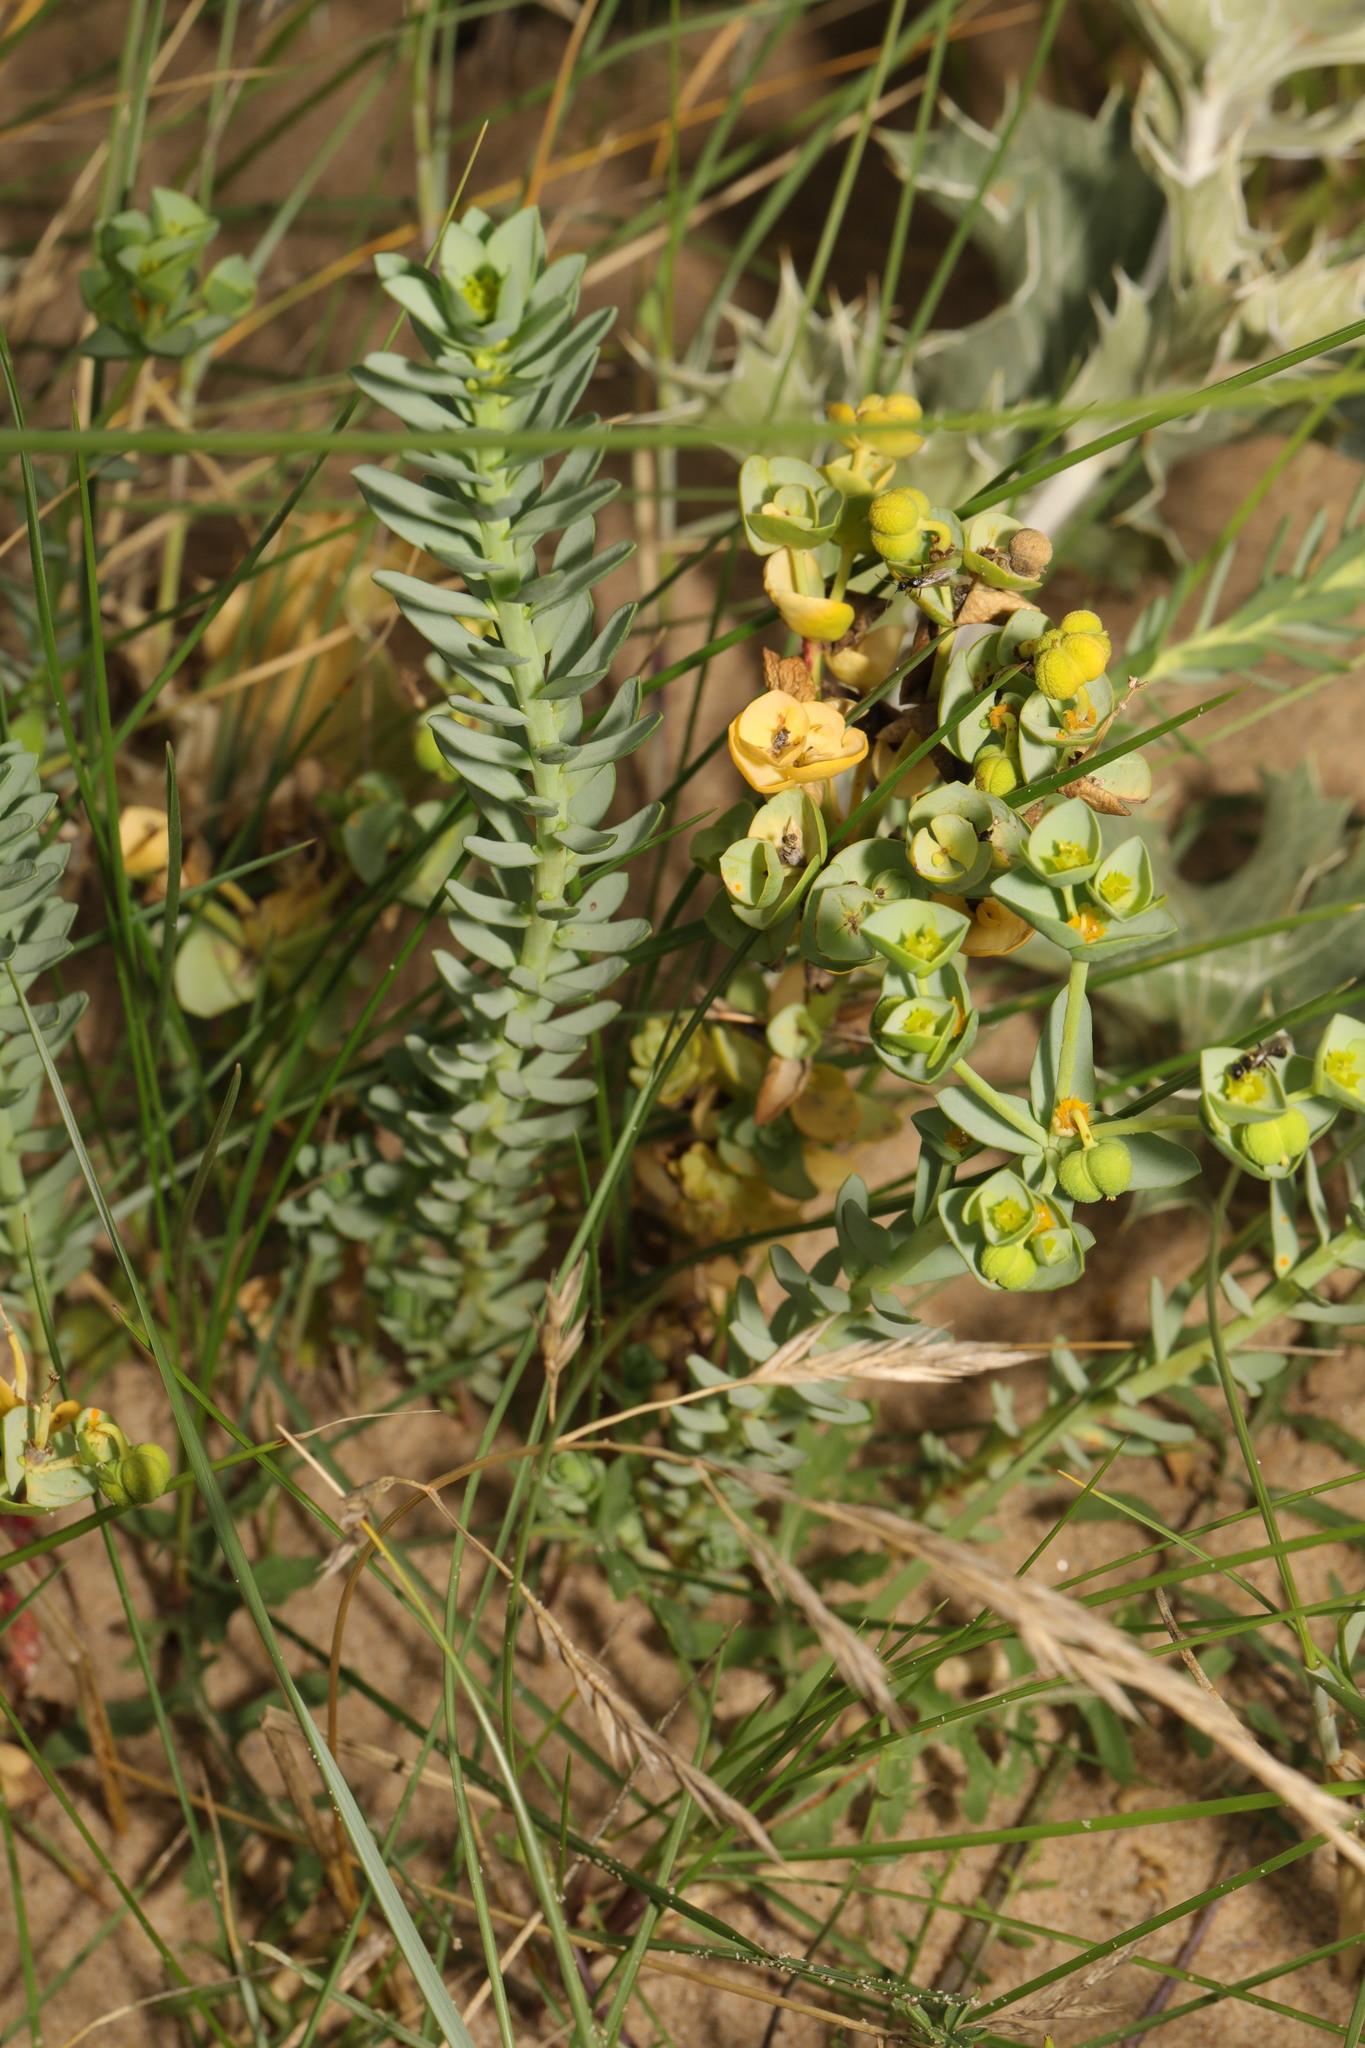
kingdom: Plantae
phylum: Tracheophyta
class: Magnoliopsida
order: Malpighiales
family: Euphorbiaceae
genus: Euphorbia
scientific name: Euphorbia paralias
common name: Sea spurge
